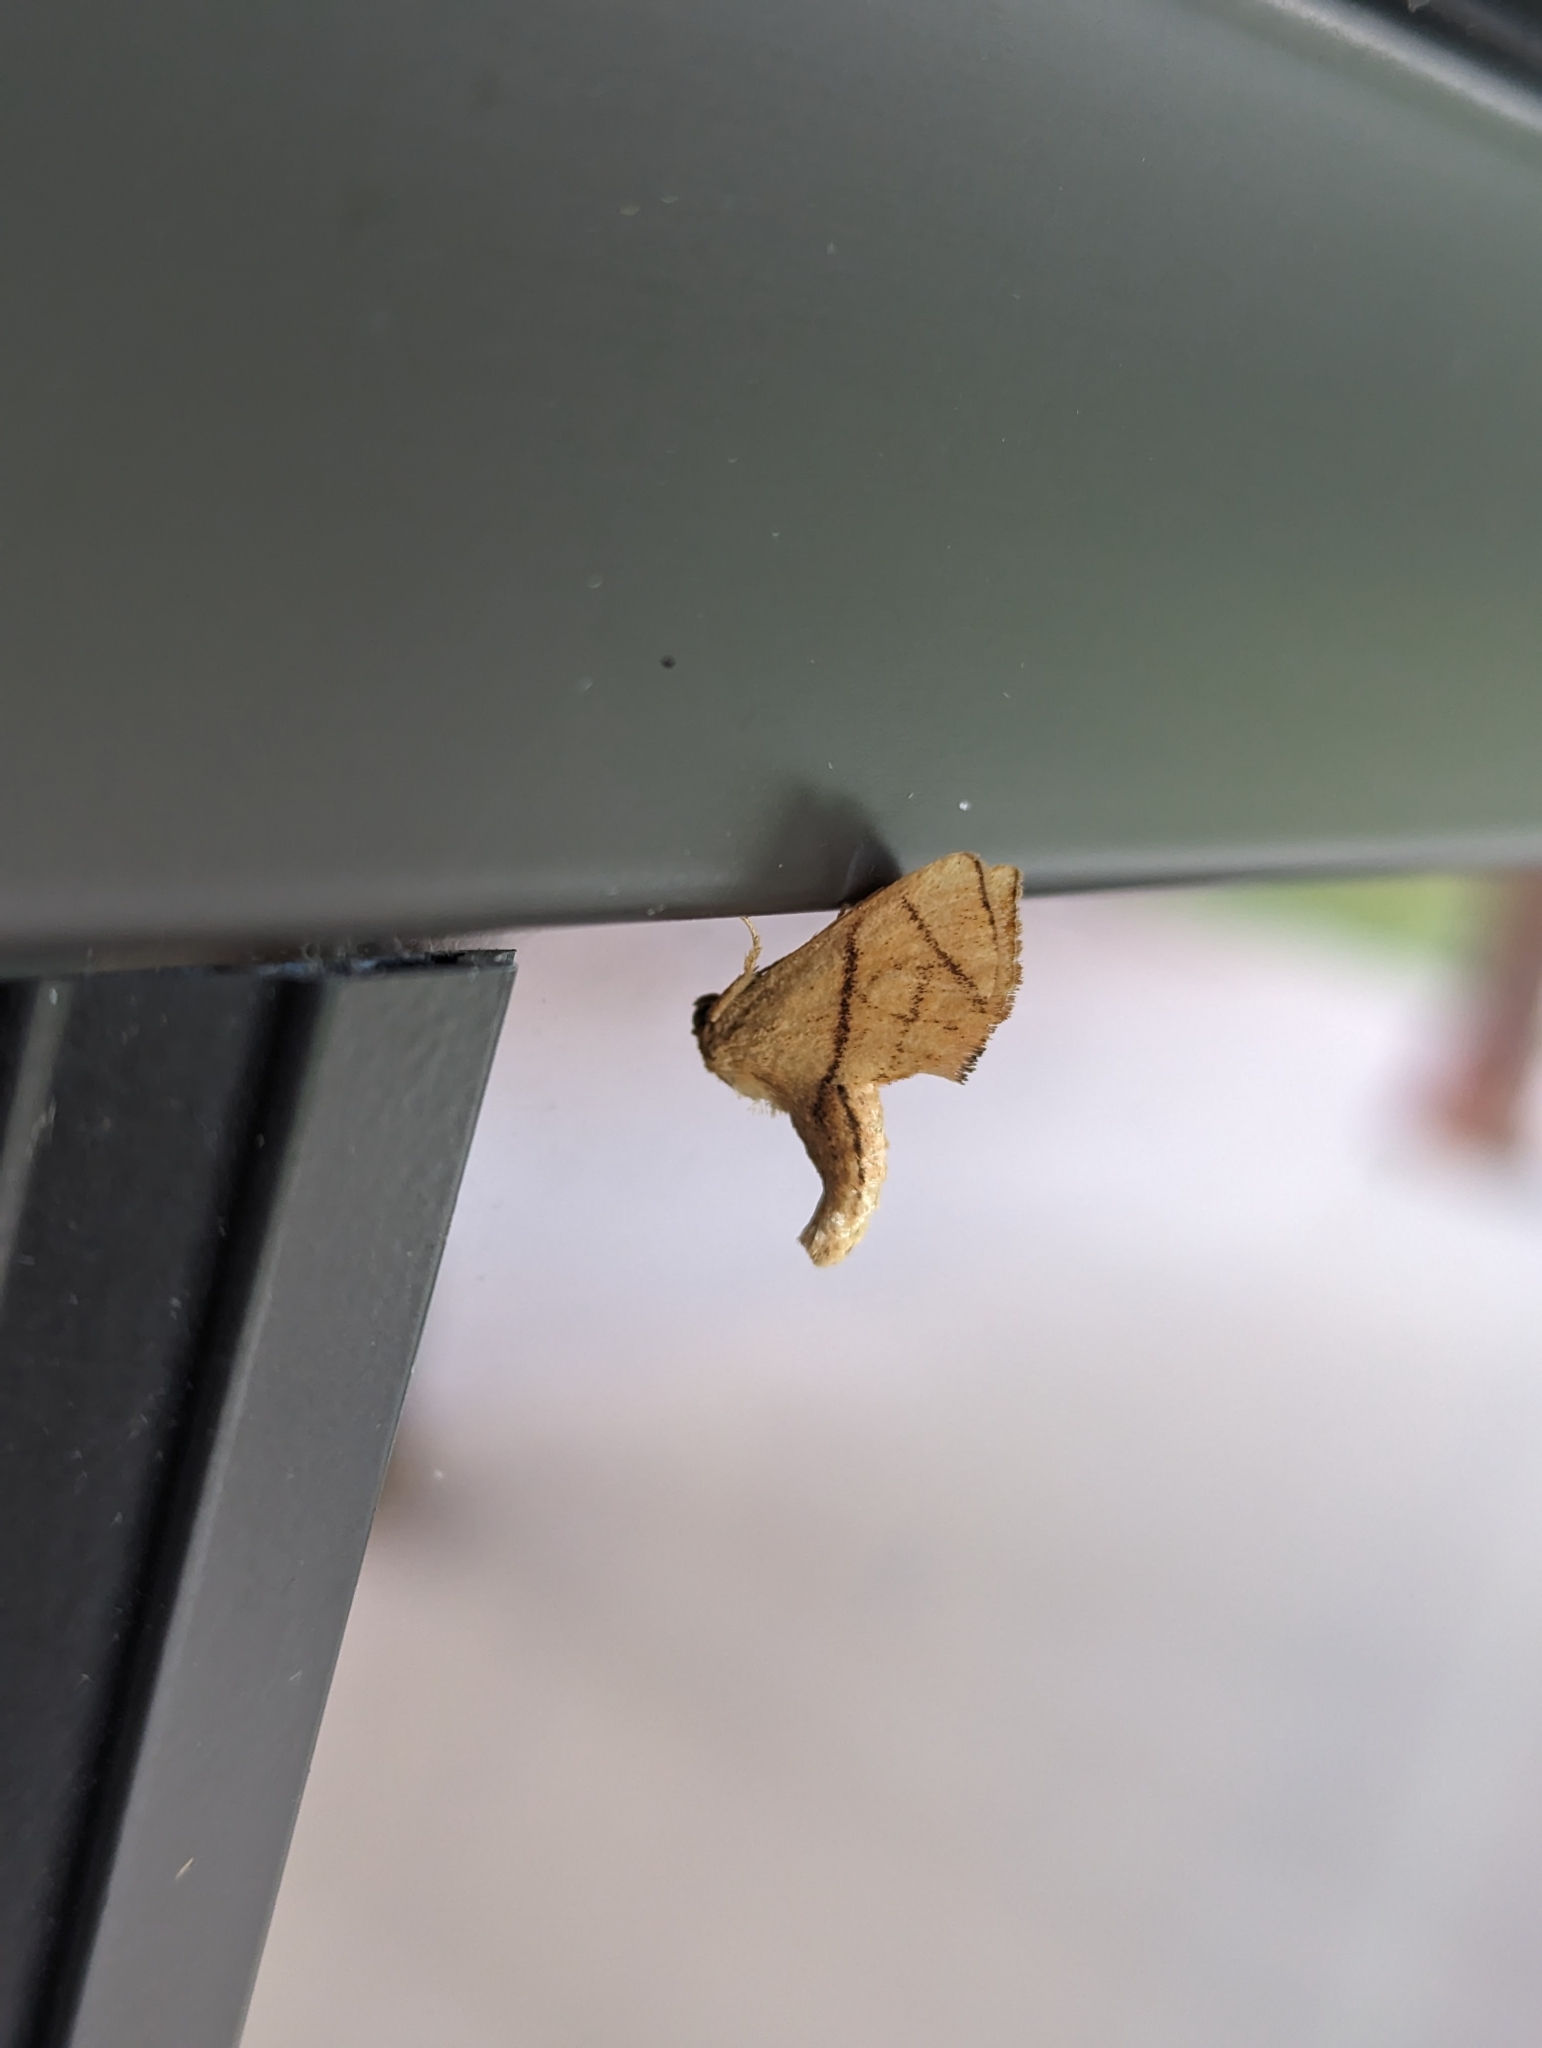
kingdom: Animalia
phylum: Arthropoda
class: Insecta
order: Lepidoptera
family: Limacodidae
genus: Apoda
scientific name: Apoda y-inversa
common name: Yellow-collared slug moth
